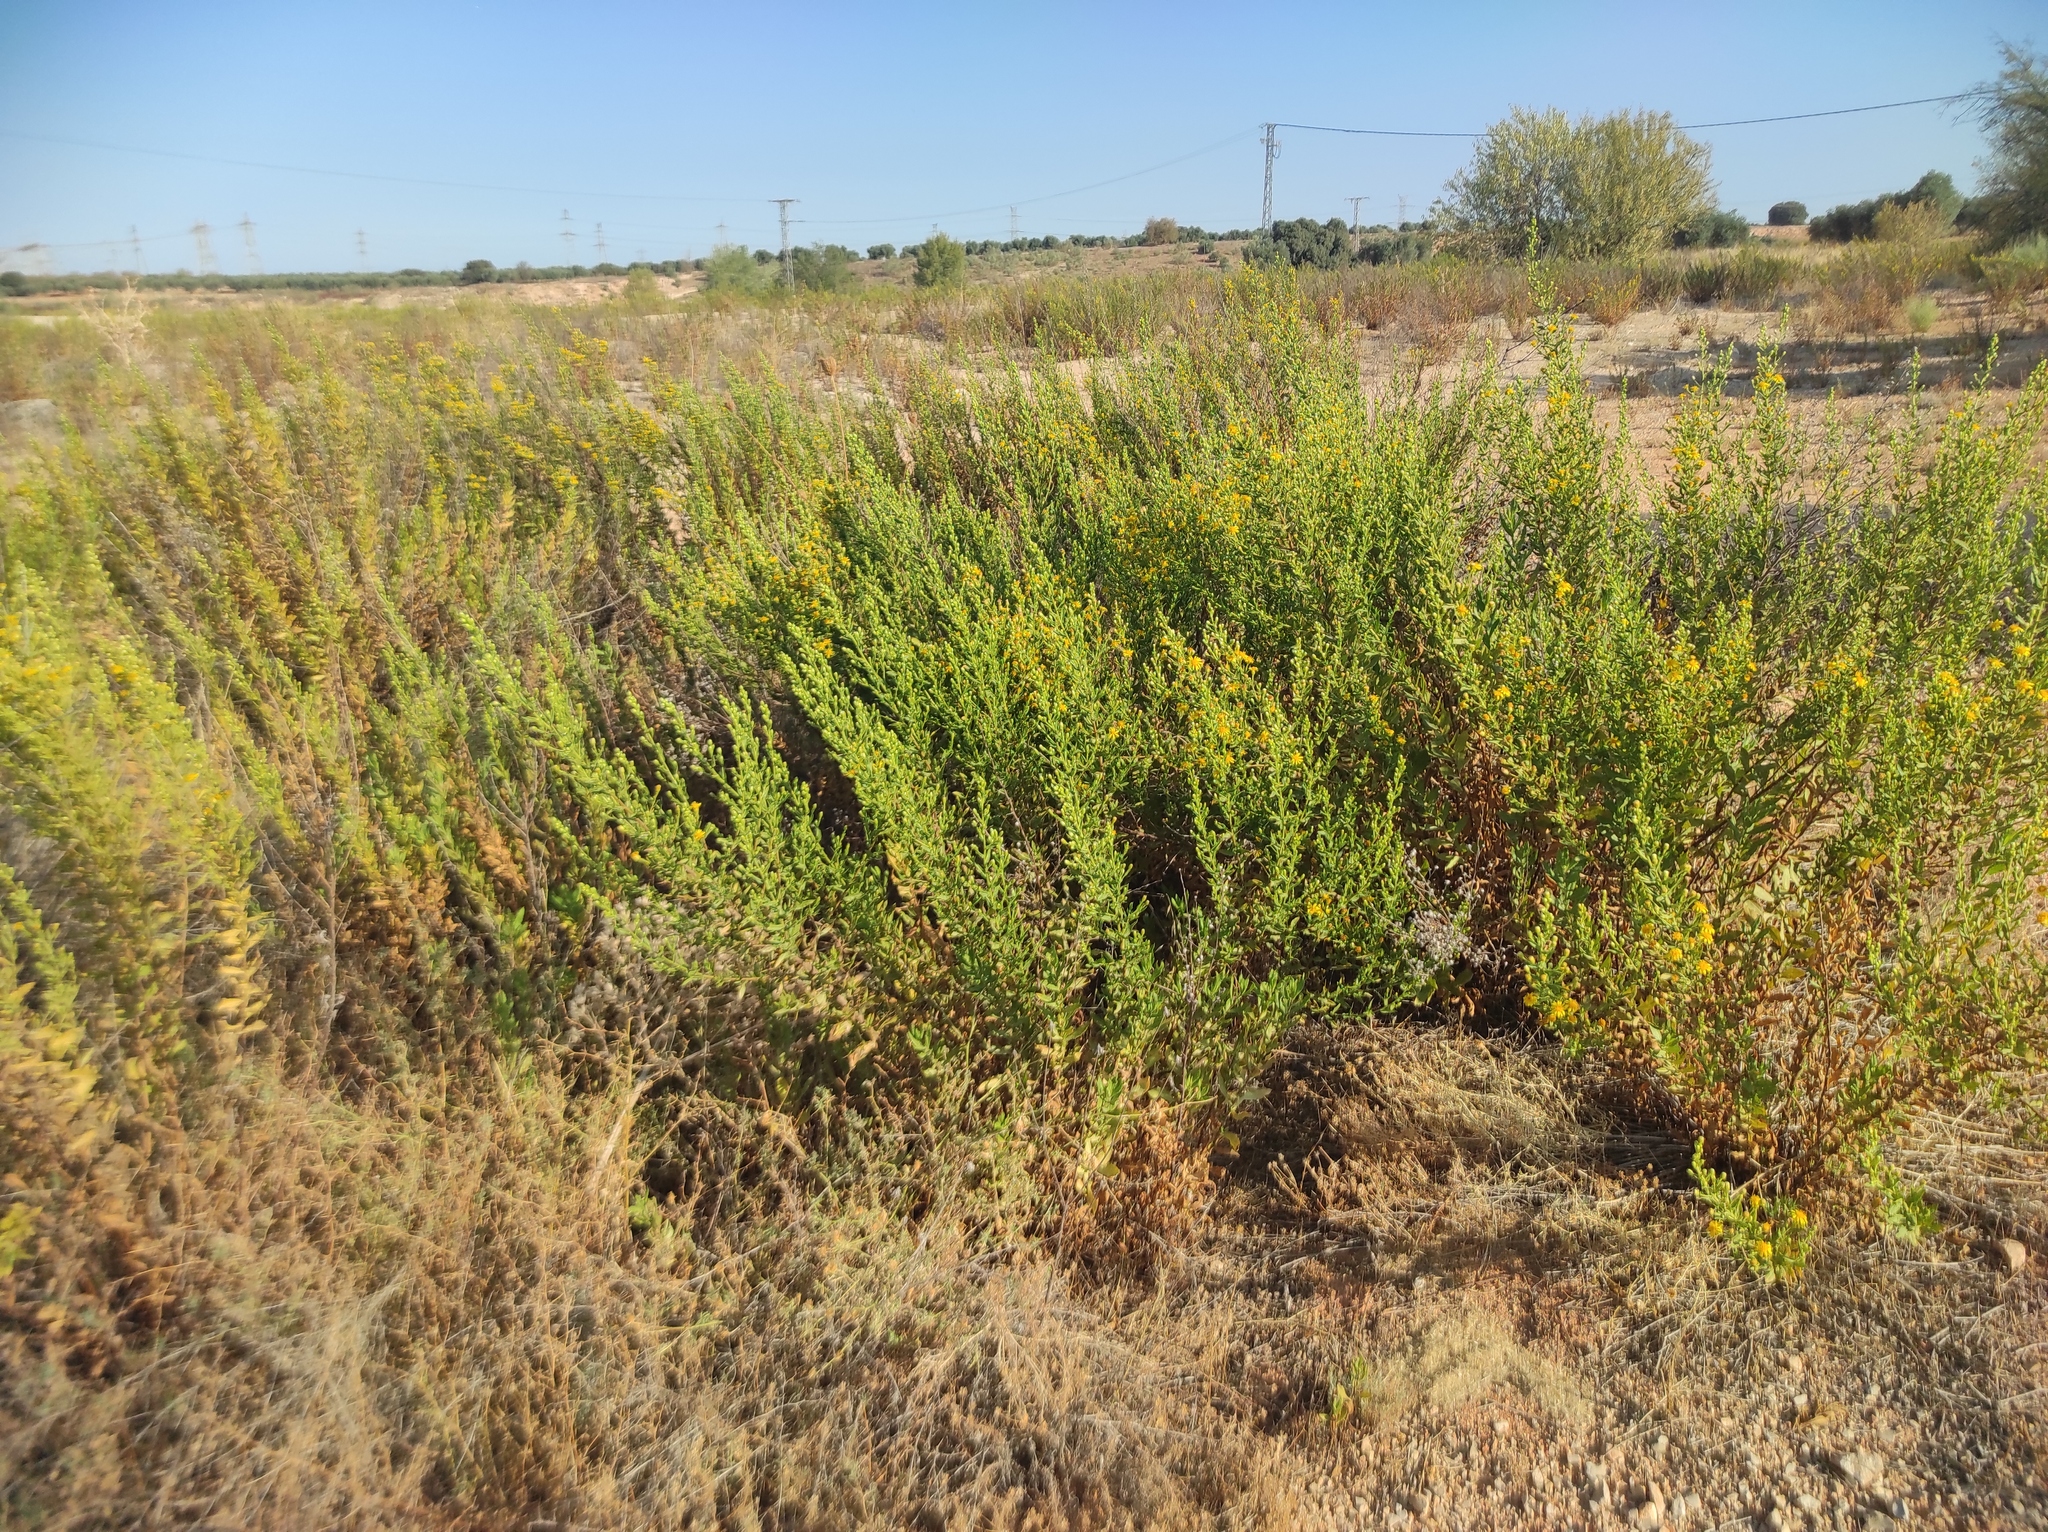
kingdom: Plantae
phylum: Tracheophyta
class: Magnoliopsida
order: Asterales
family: Asteraceae
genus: Dittrichia
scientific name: Dittrichia viscosa
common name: Woody fleabane
